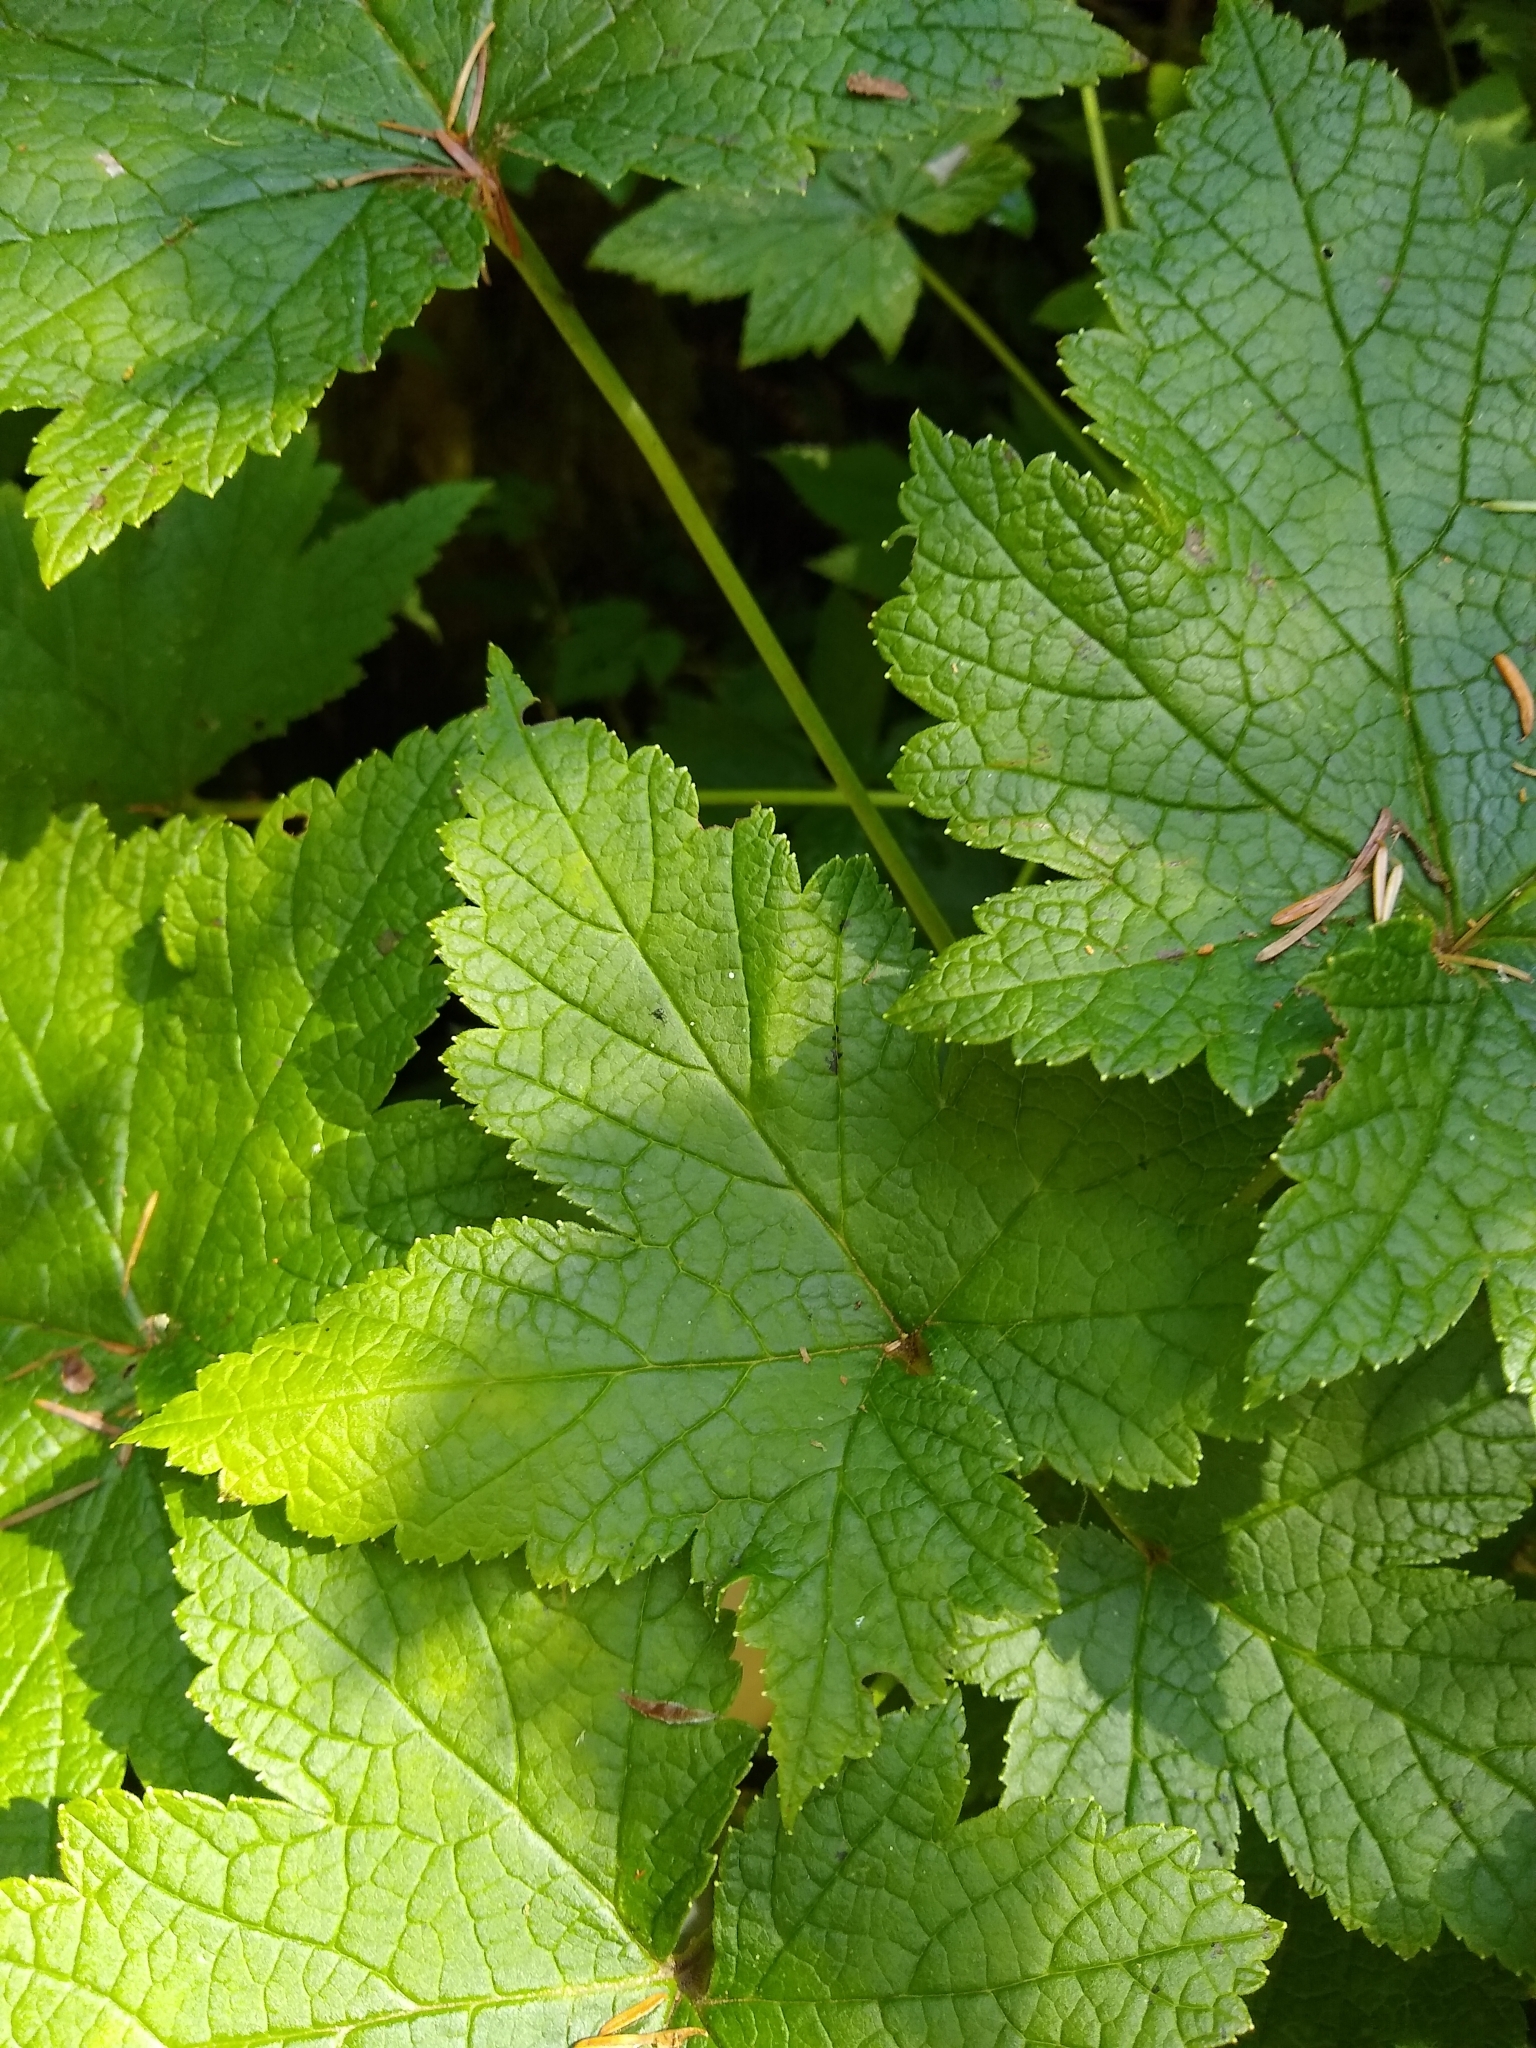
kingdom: Plantae
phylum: Tracheophyta
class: Magnoliopsida
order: Saxifragales
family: Grossulariaceae
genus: Ribes
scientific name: Ribes bracteosum
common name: California black currant
